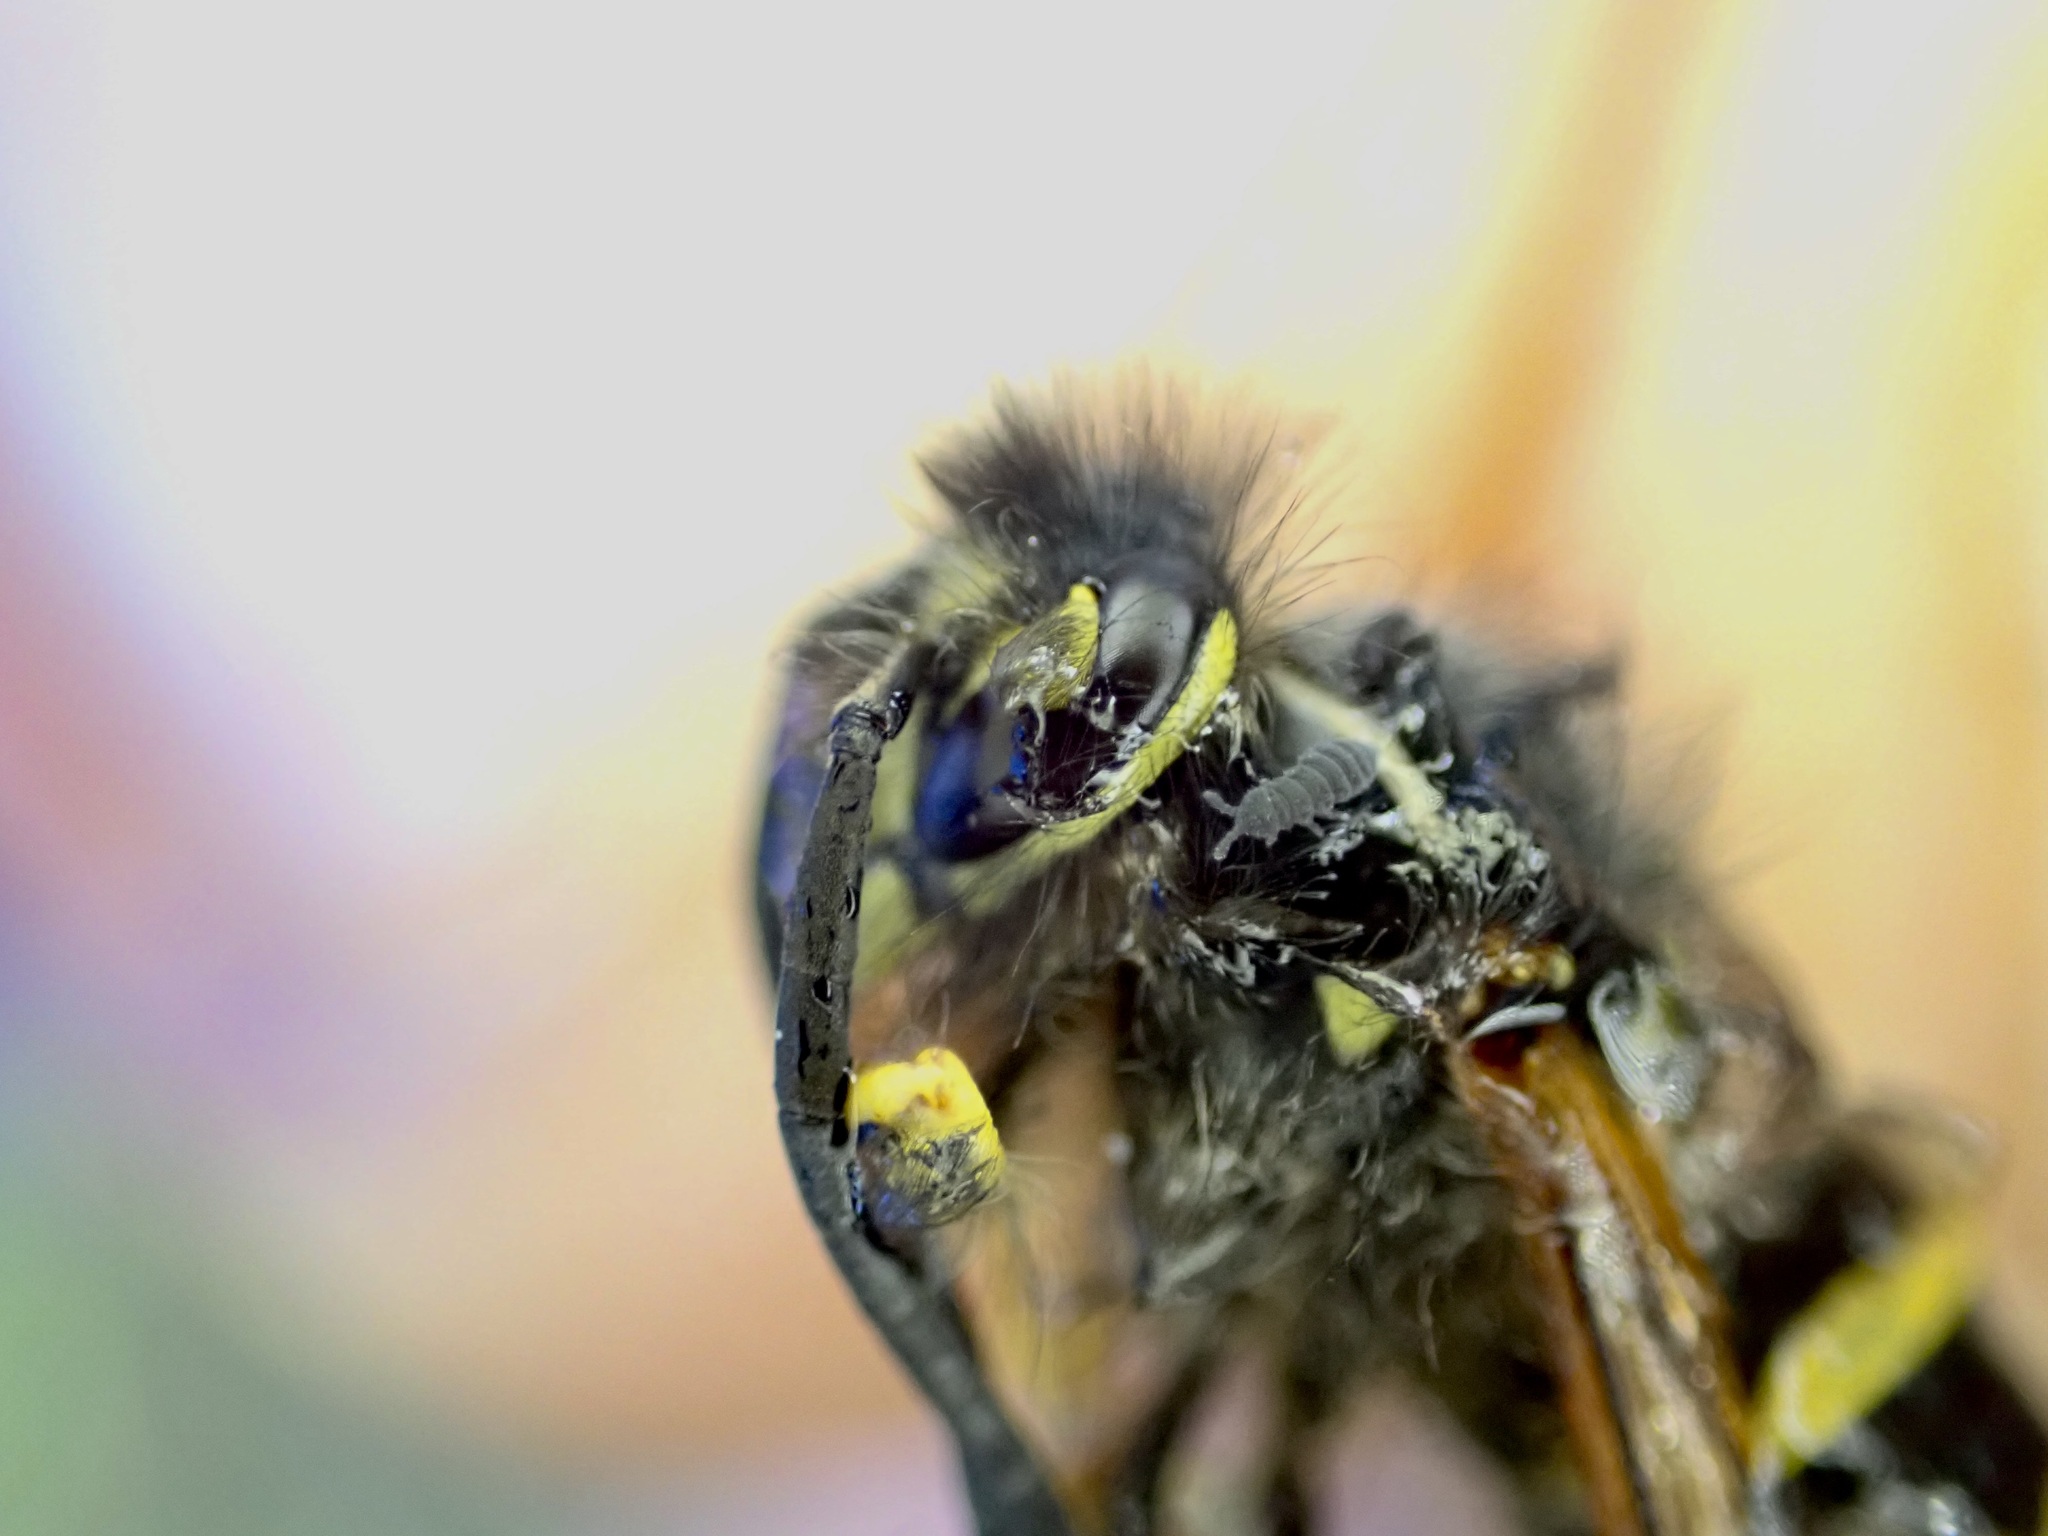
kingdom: Animalia
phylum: Arthropoda
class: Insecta
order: Hymenoptera
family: Vespidae
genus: Vespula
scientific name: Vespula vulgaris
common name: Common wasp
